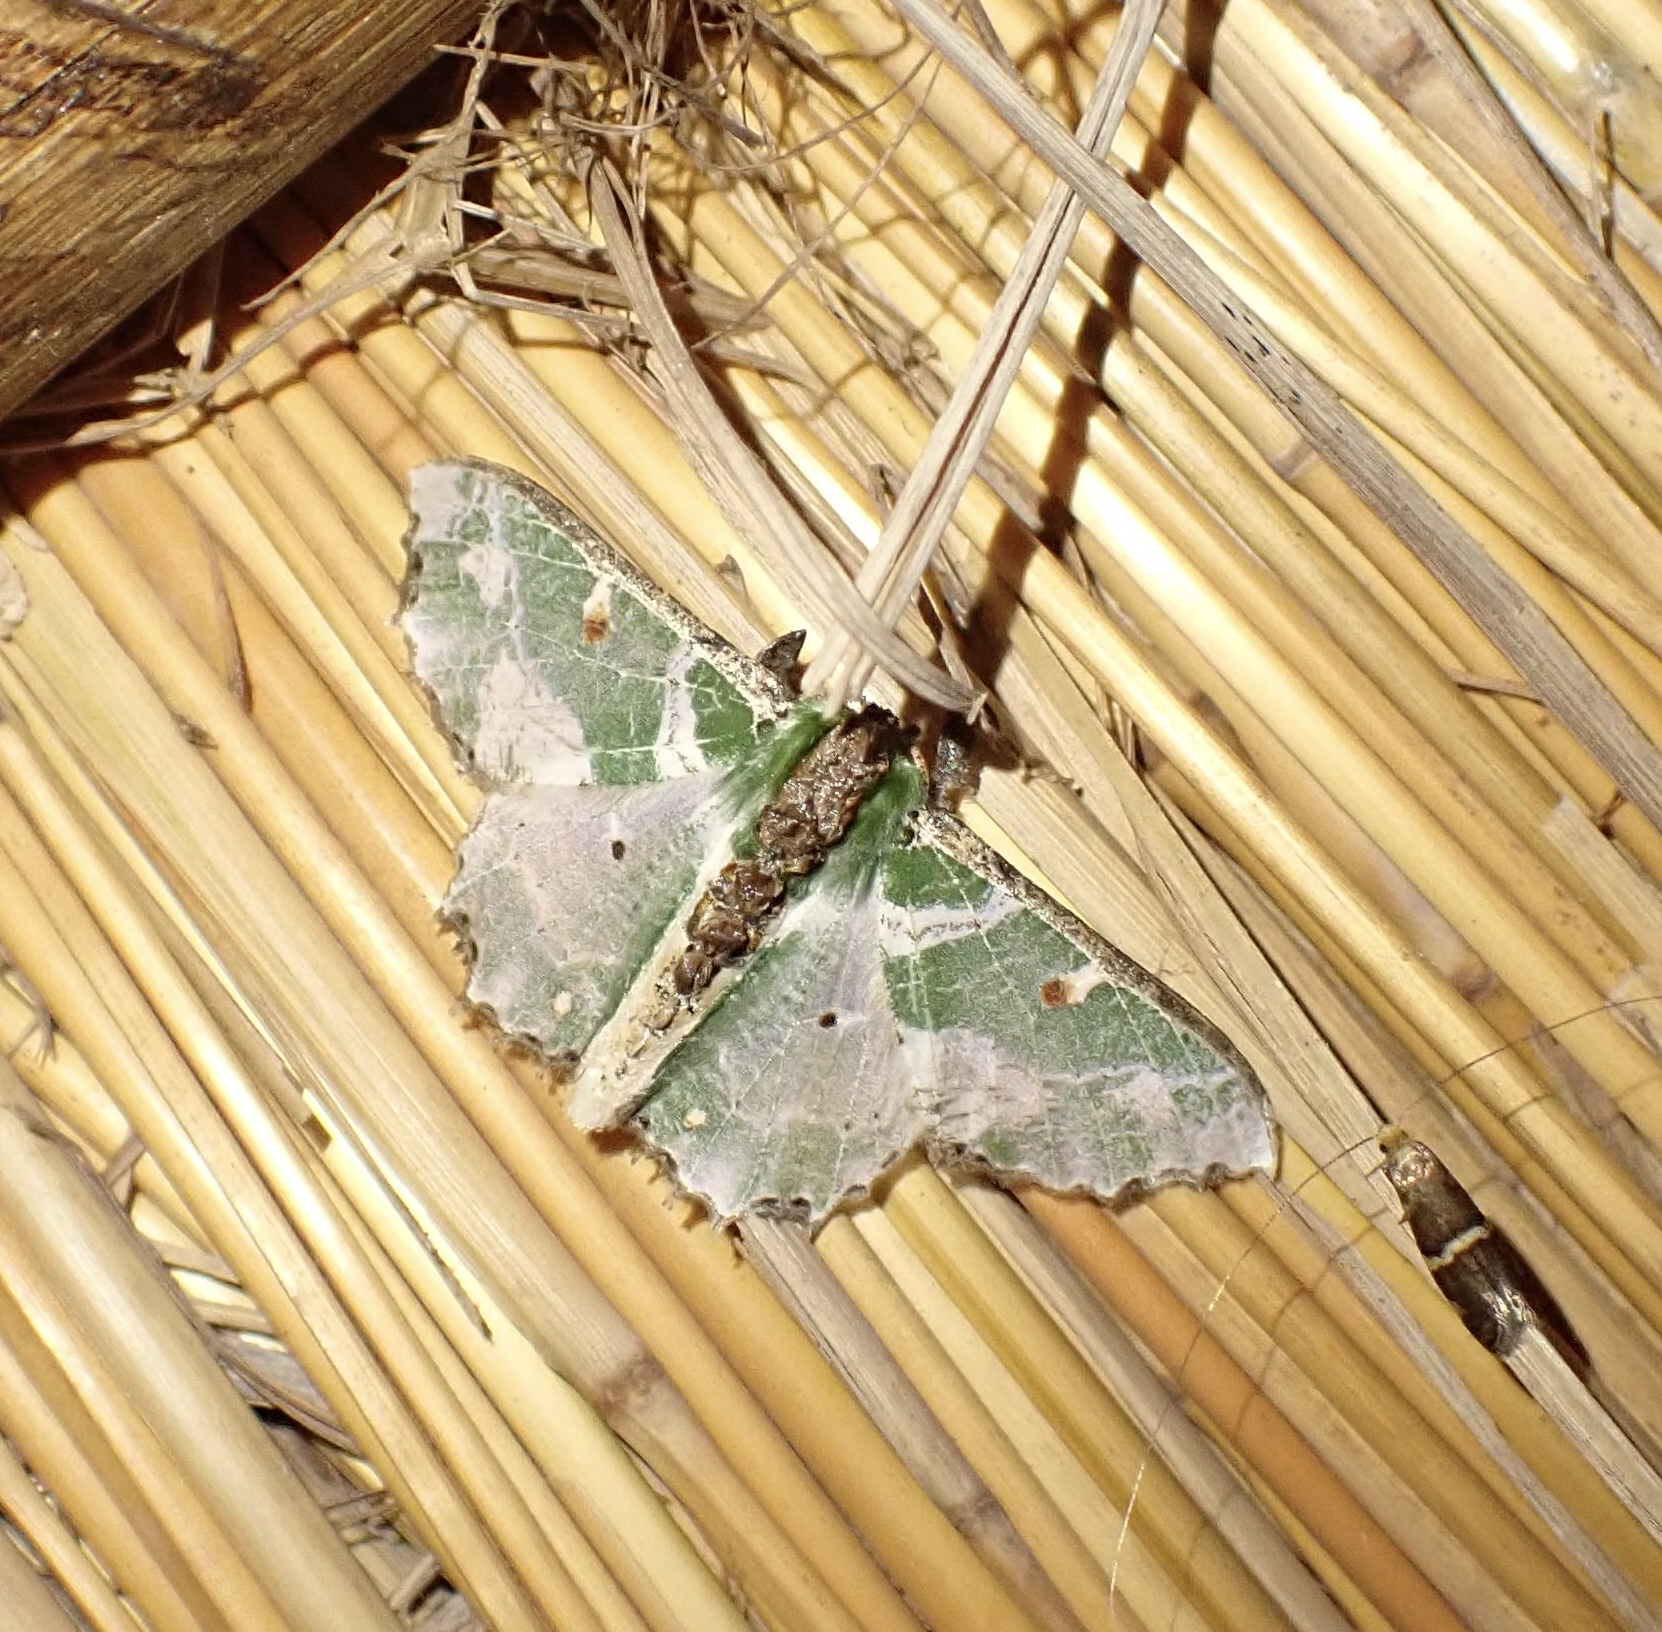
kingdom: Animalia
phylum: Arthropoda
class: Insecta
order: Lepidoptera
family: Geometridae
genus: Victoria
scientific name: Victoria fuscithorax
